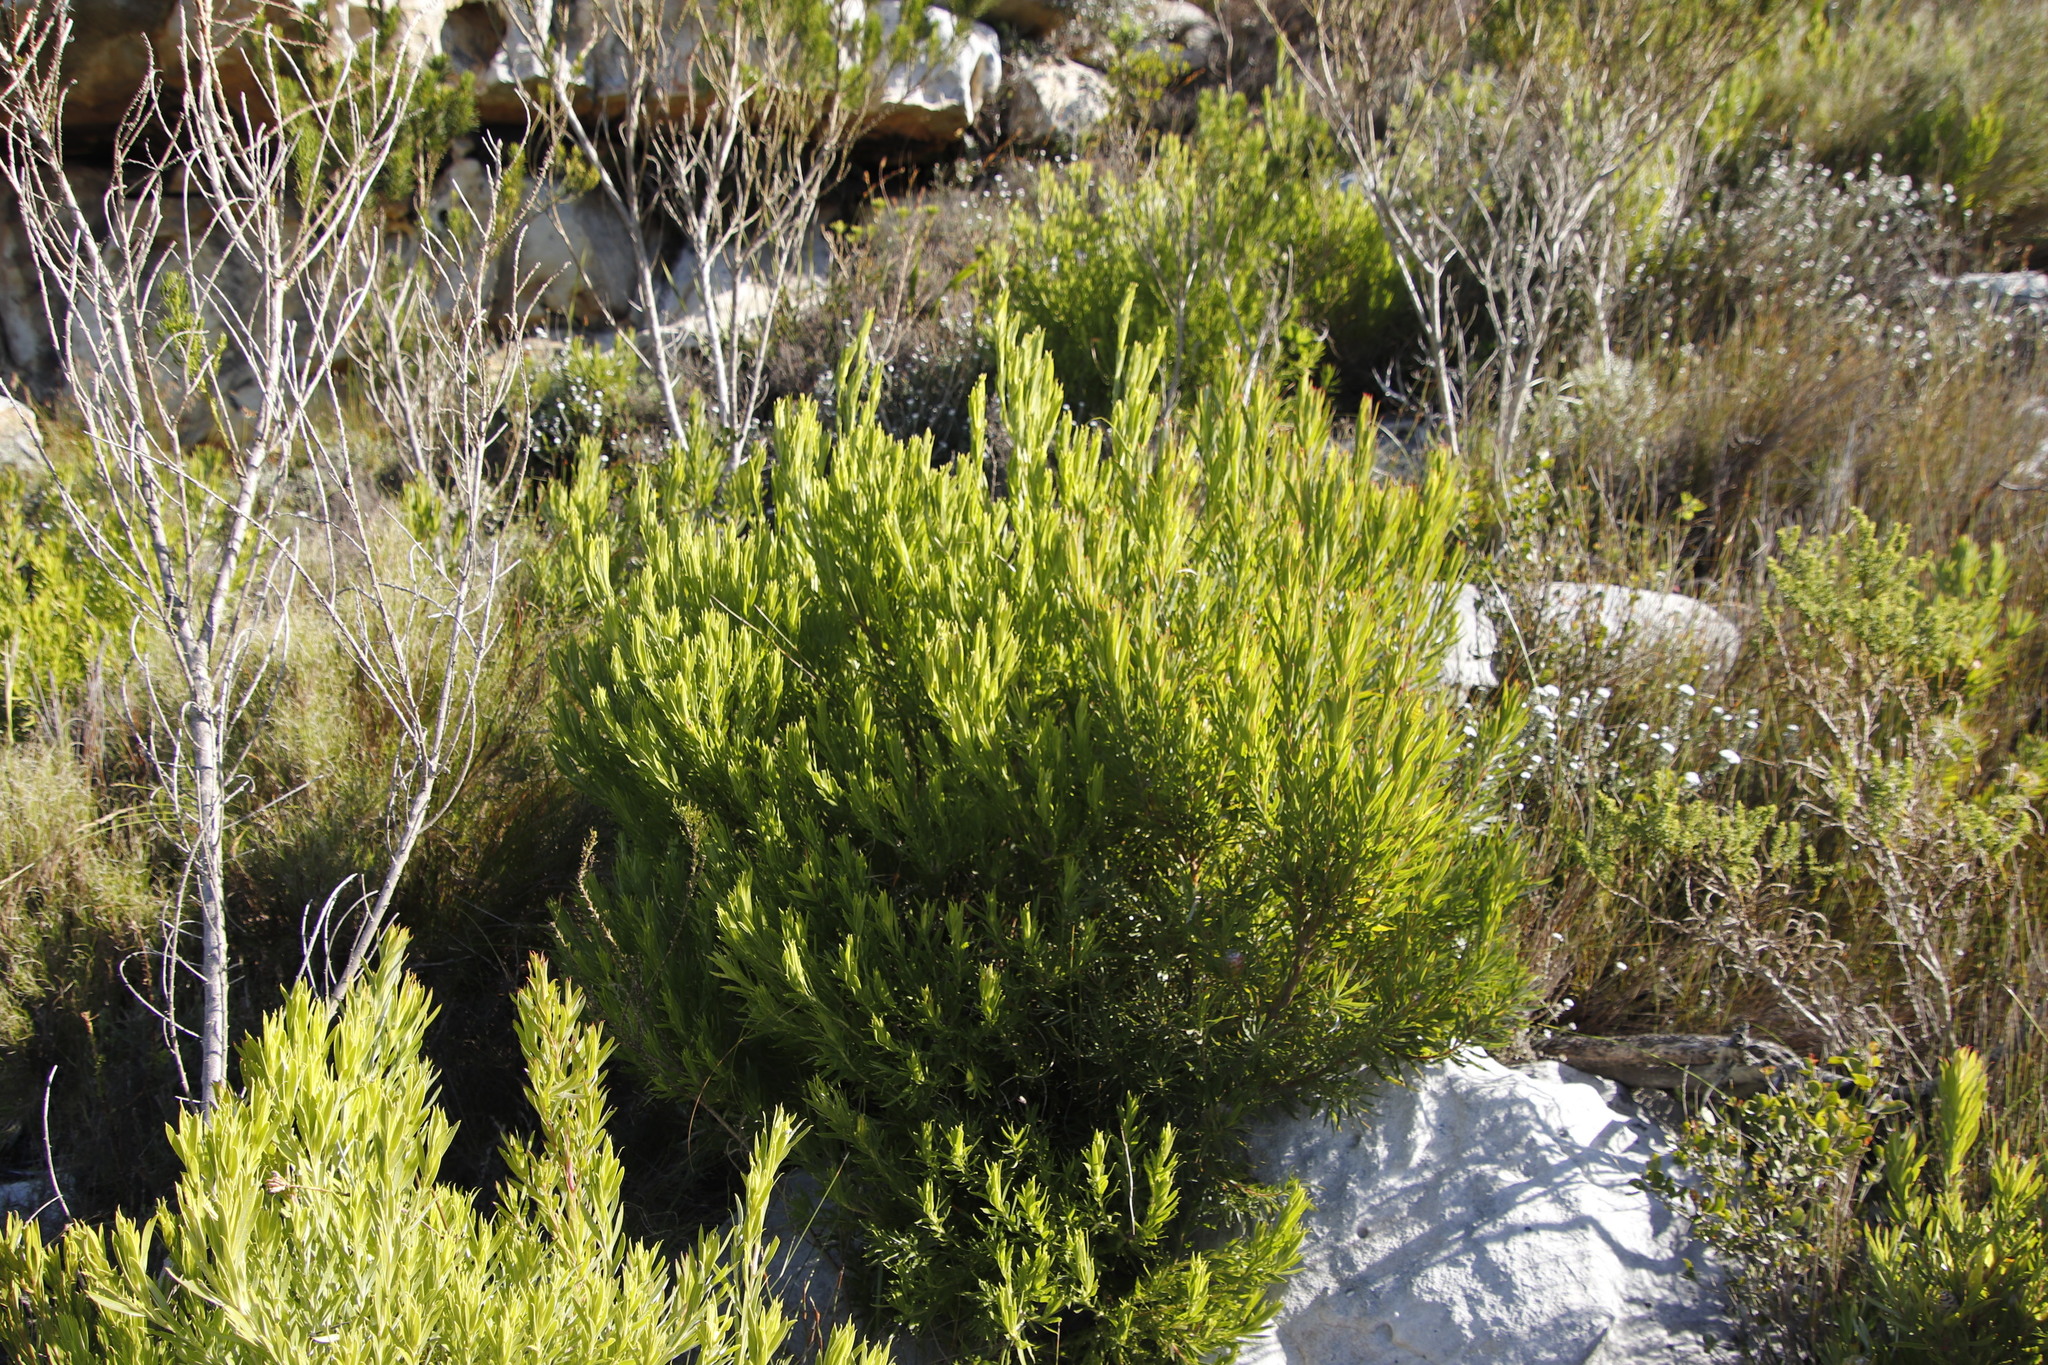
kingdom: Plantae
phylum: Tracheophyta
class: Magnoliopsida
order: Proteales
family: Proteaceae
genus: Leucadendron
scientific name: Leucadendron xanthoconus
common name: Sickle-leaf conebush
